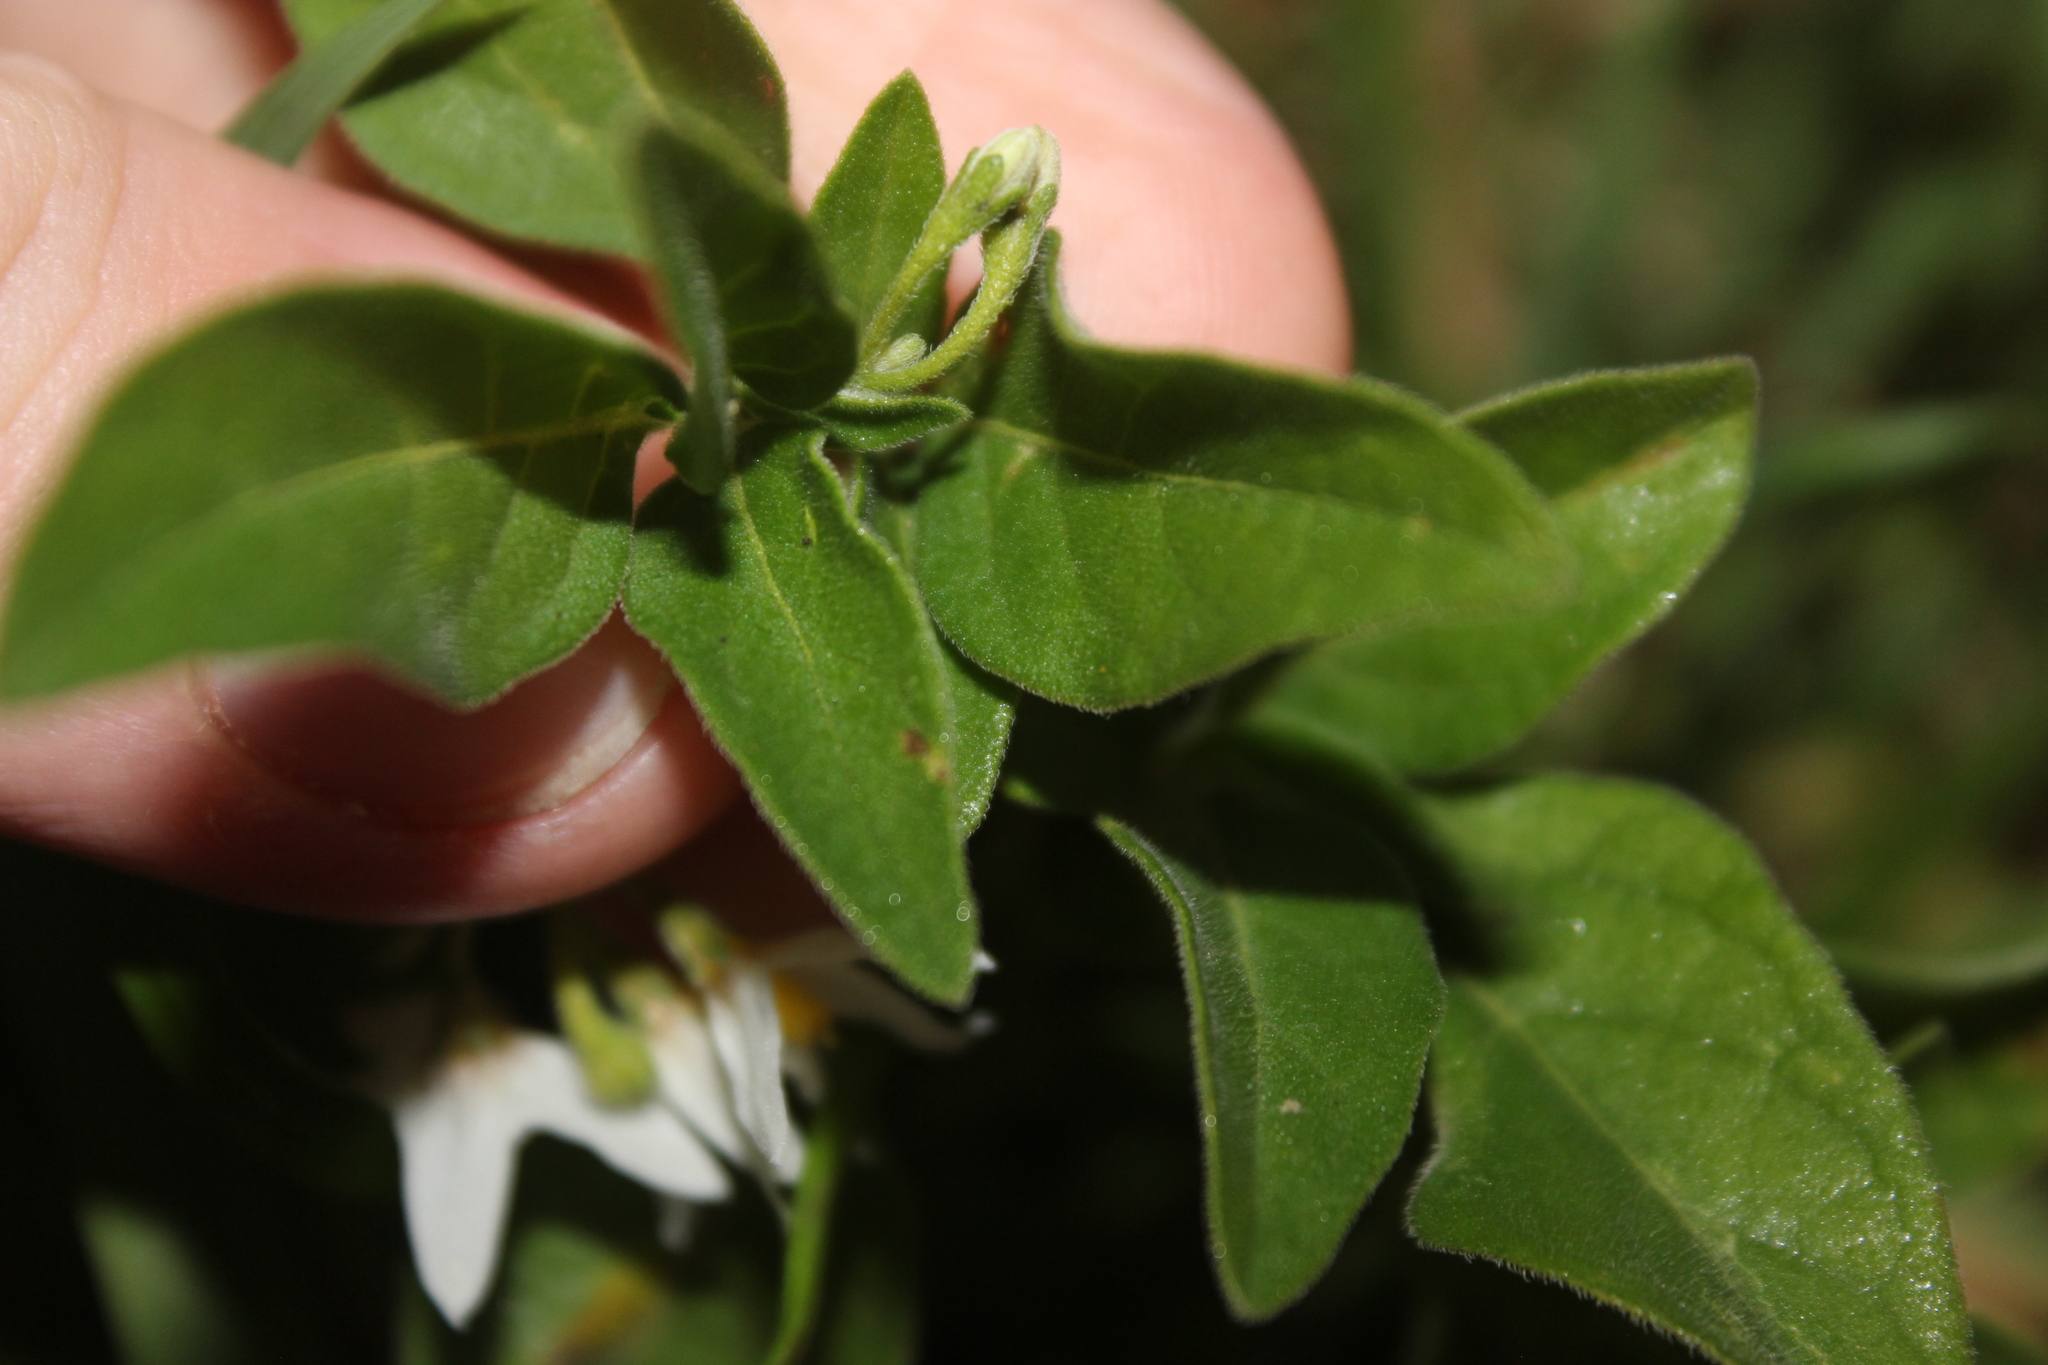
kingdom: Plantae
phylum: Tracheophyta
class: Magnoliopsida
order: Solanales
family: Solanaceae
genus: Solanum
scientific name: Solanum chenopodioides
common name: Tall nightshade
